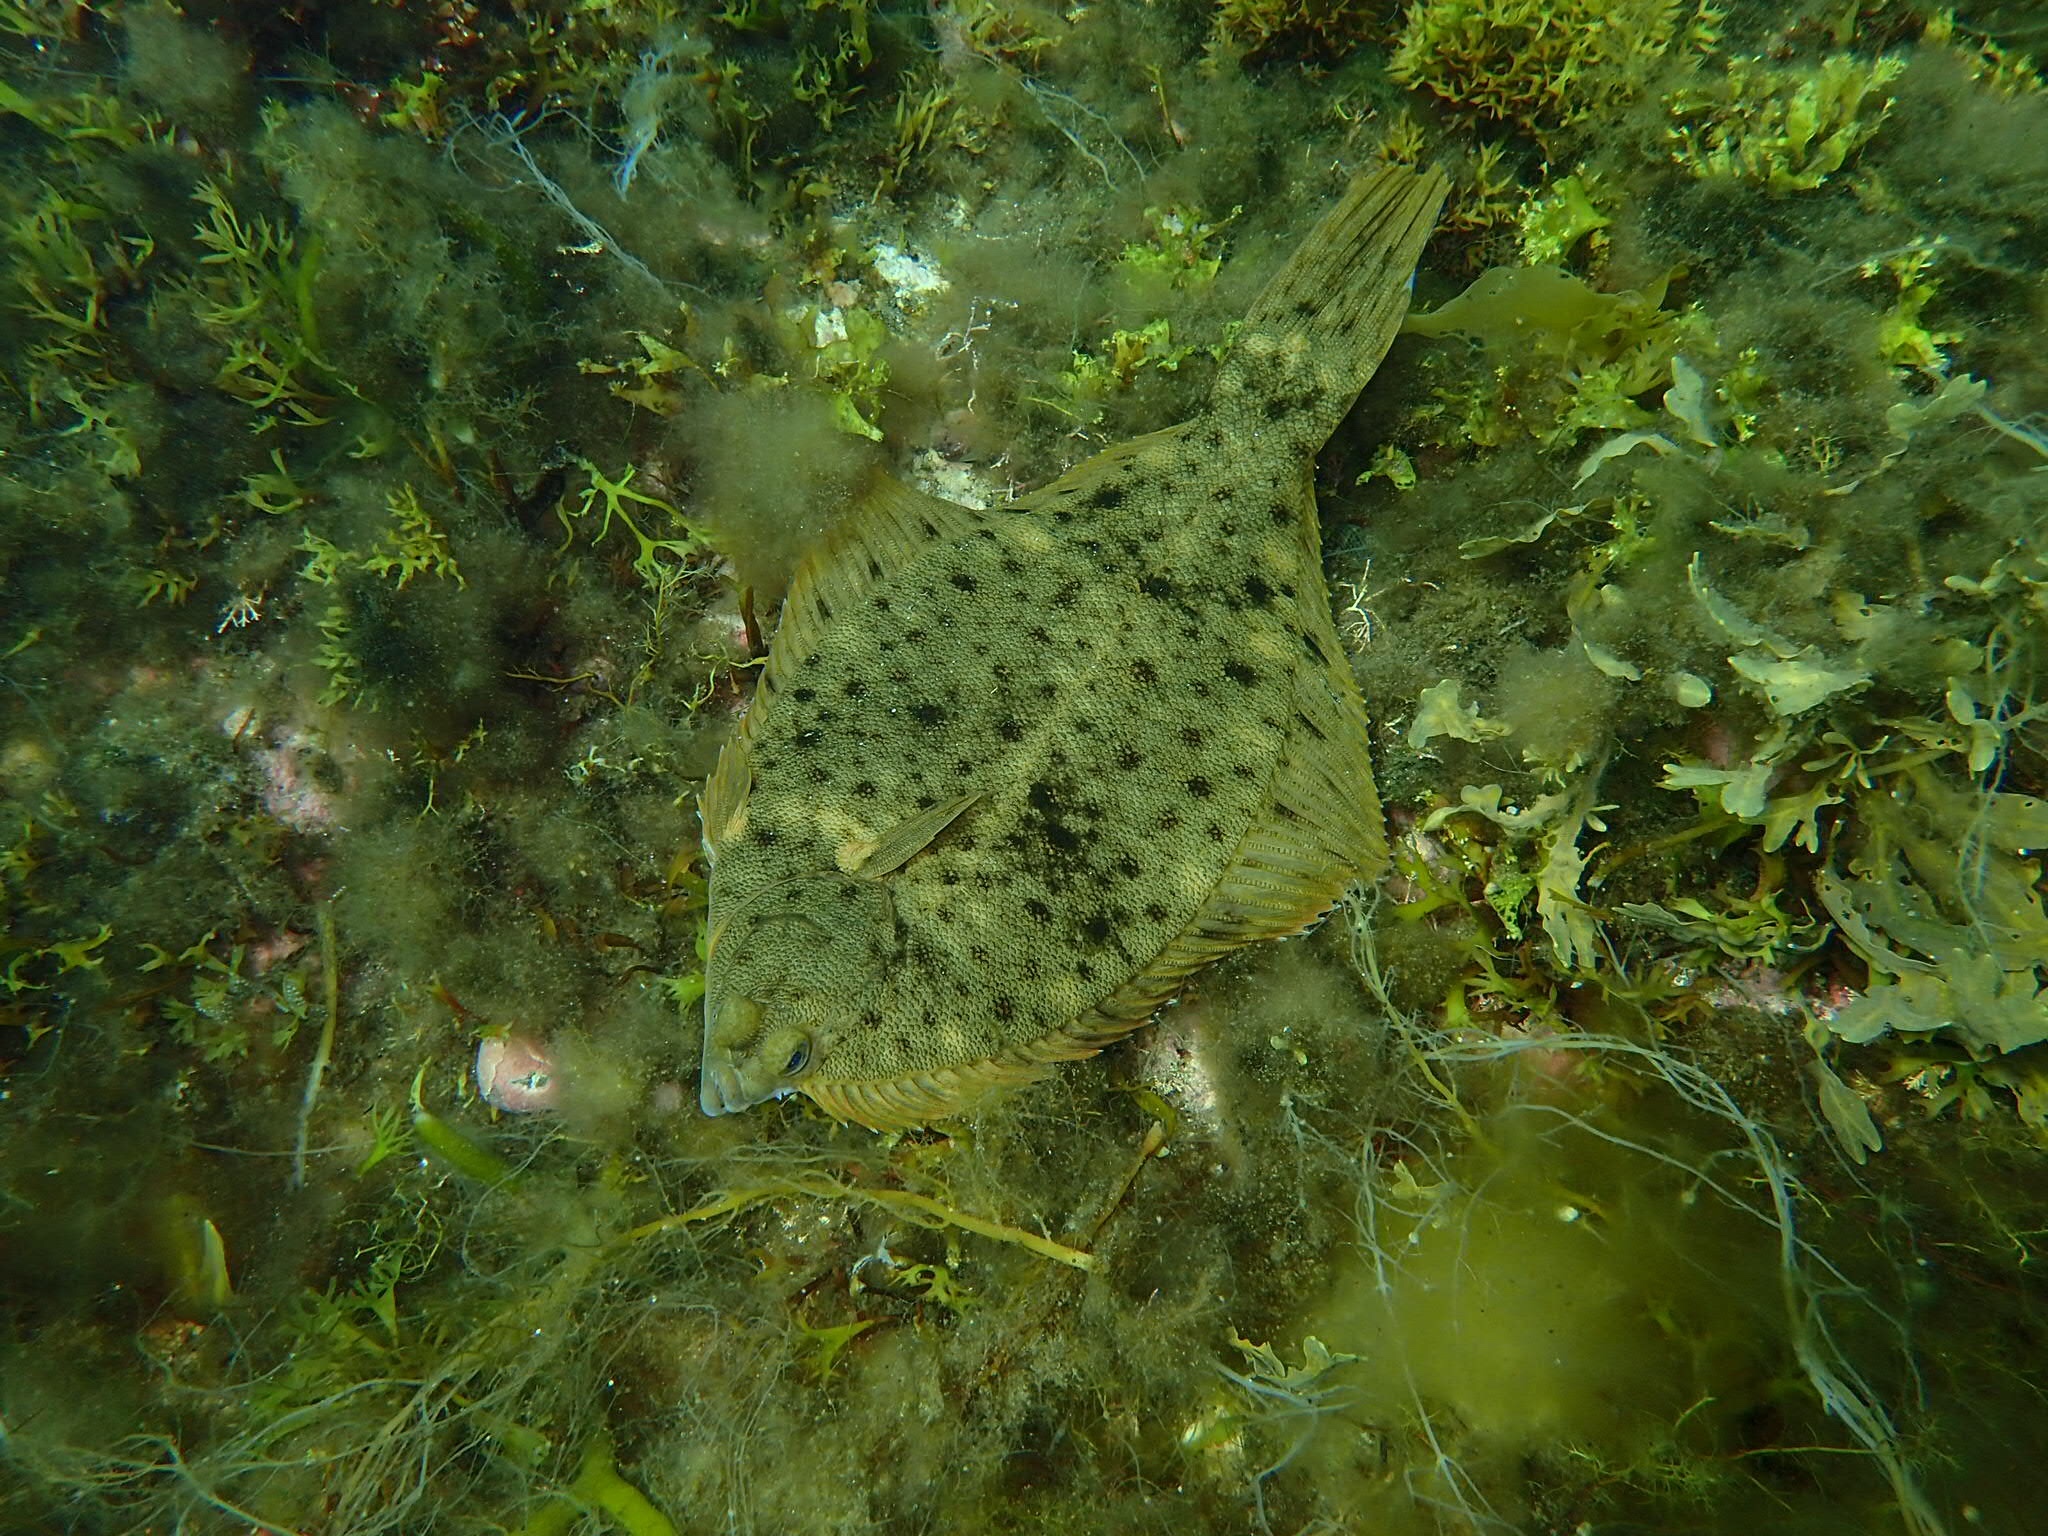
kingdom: Animalia
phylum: Chordata
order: Pleuronectiformes
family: Pleuronectidae
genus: Pseudopleuronectes
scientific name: Pseudopleuronectes americanus
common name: Black backs
